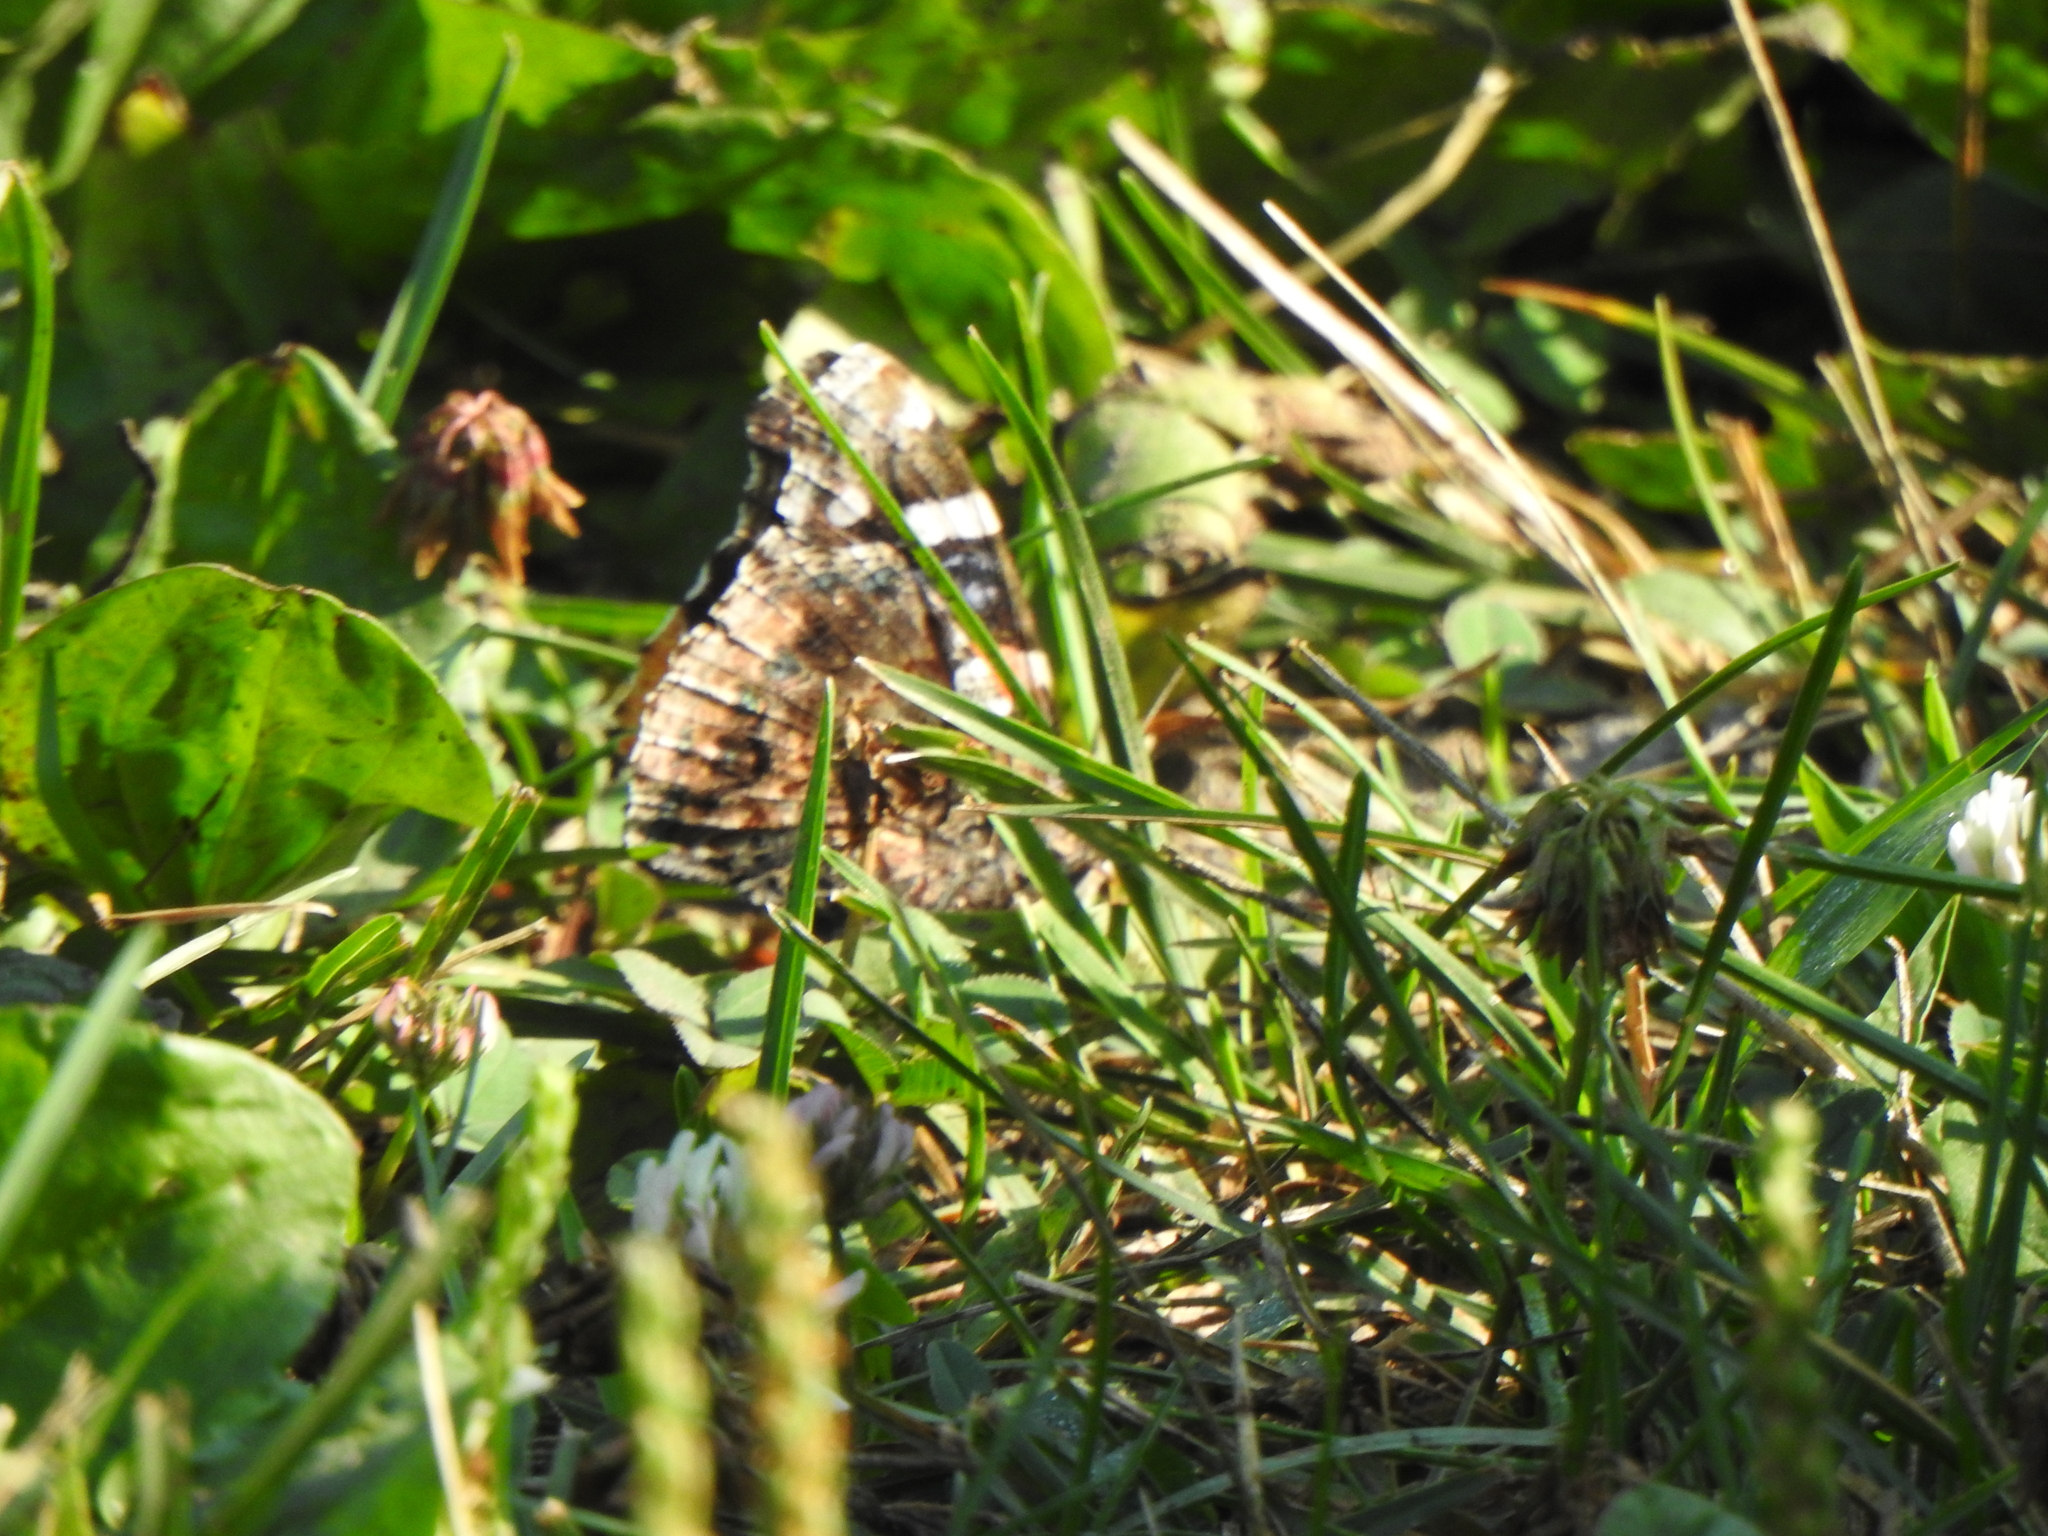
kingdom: Animalia
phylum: Arthropoda
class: Insecta
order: Lepidoptera
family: Nymphalidae
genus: Vanessa
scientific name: Vanessa atalanta
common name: Red admiral
